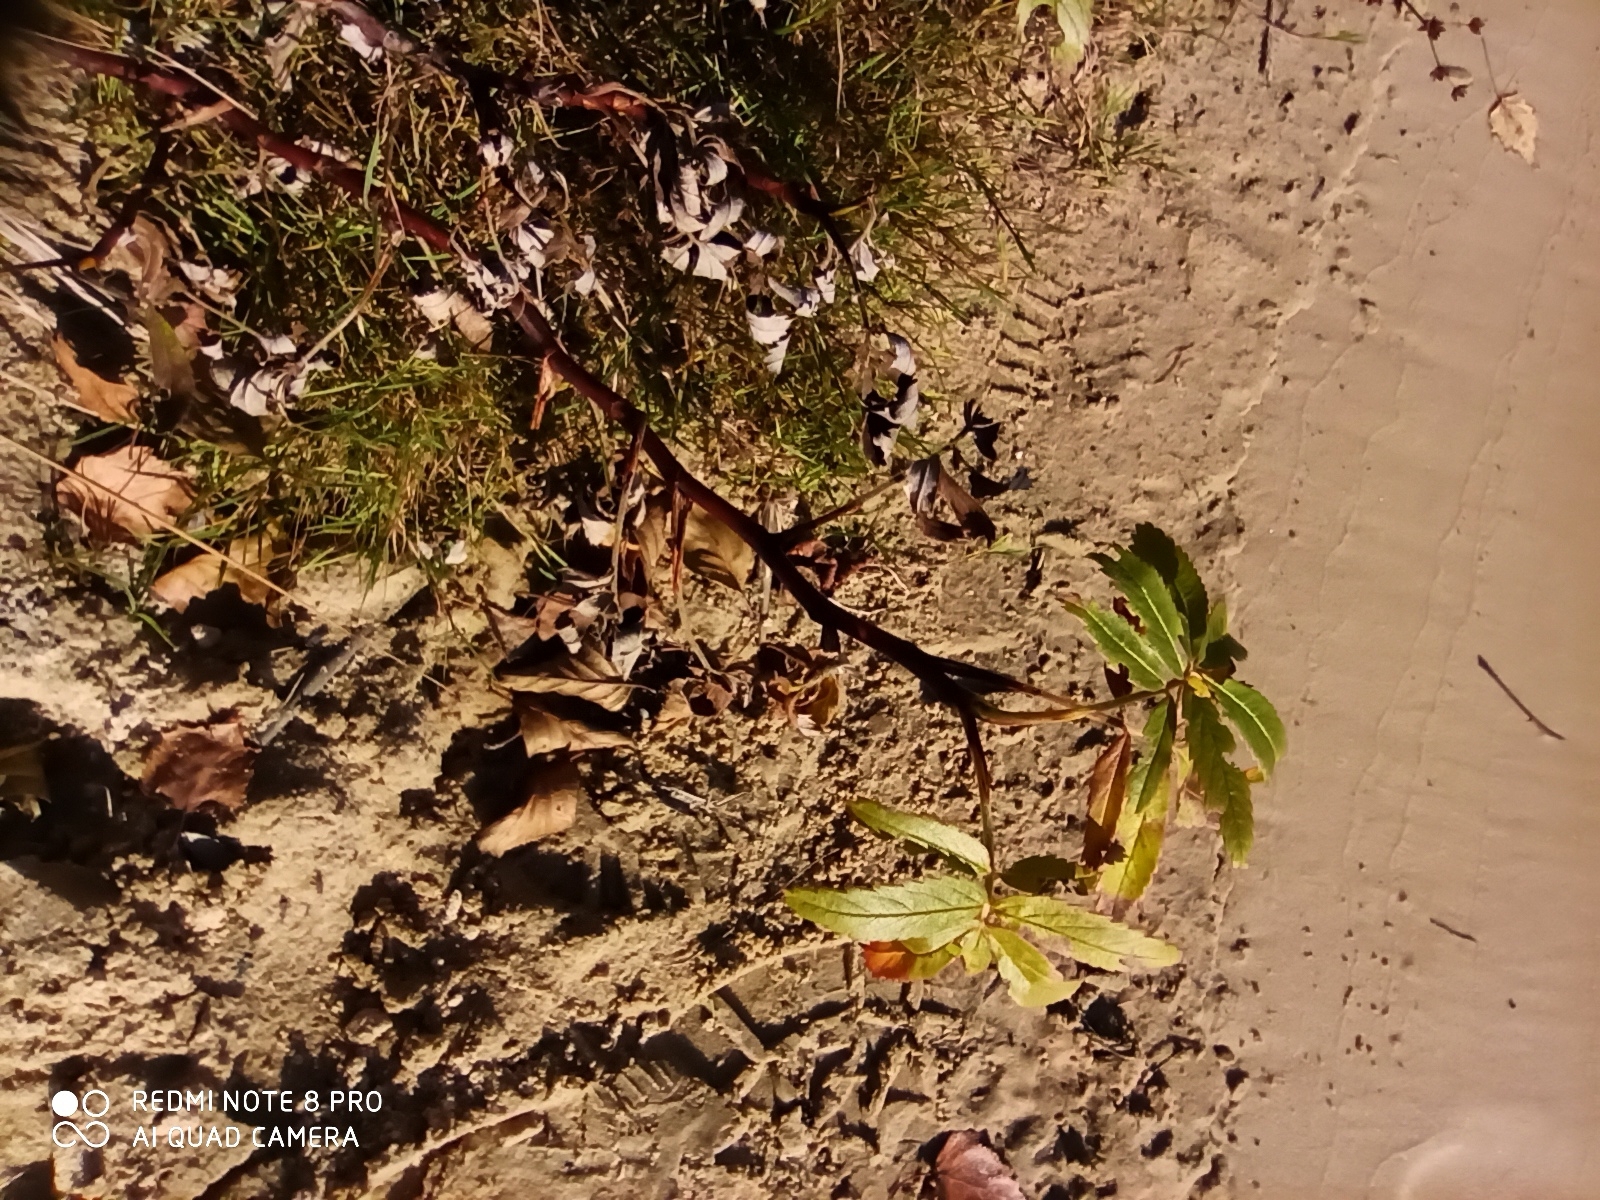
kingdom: Plantae
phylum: Tracheophyta
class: Magnoliopsida
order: Rosales
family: Rosaceae
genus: Comarum
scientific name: Comarum palustre
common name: Marsh cinquefoil
